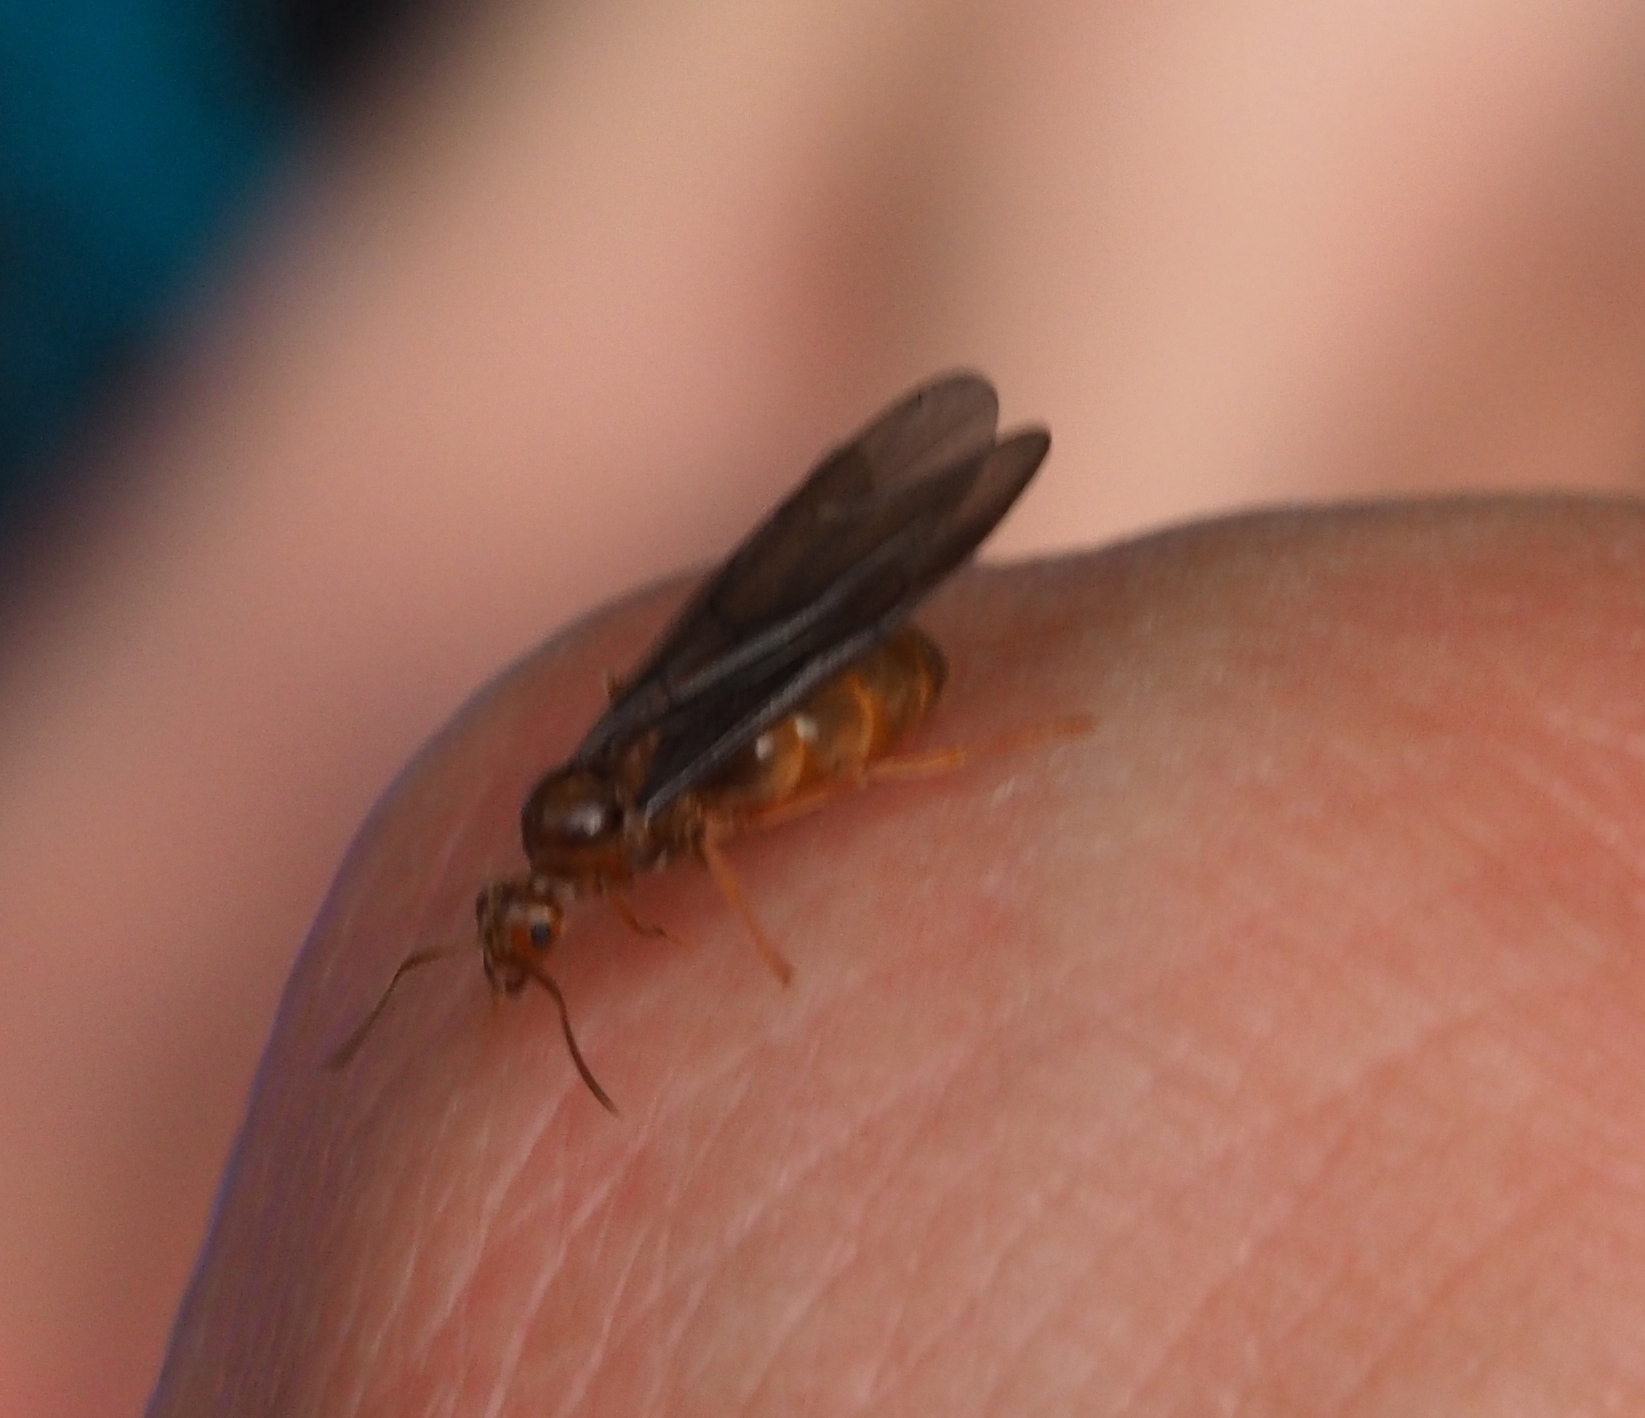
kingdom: Animalia
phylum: Arthropoda
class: Insecta
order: Hymenoptera
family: Formicidae
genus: Prenolepis
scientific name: Prenolepis nitens
